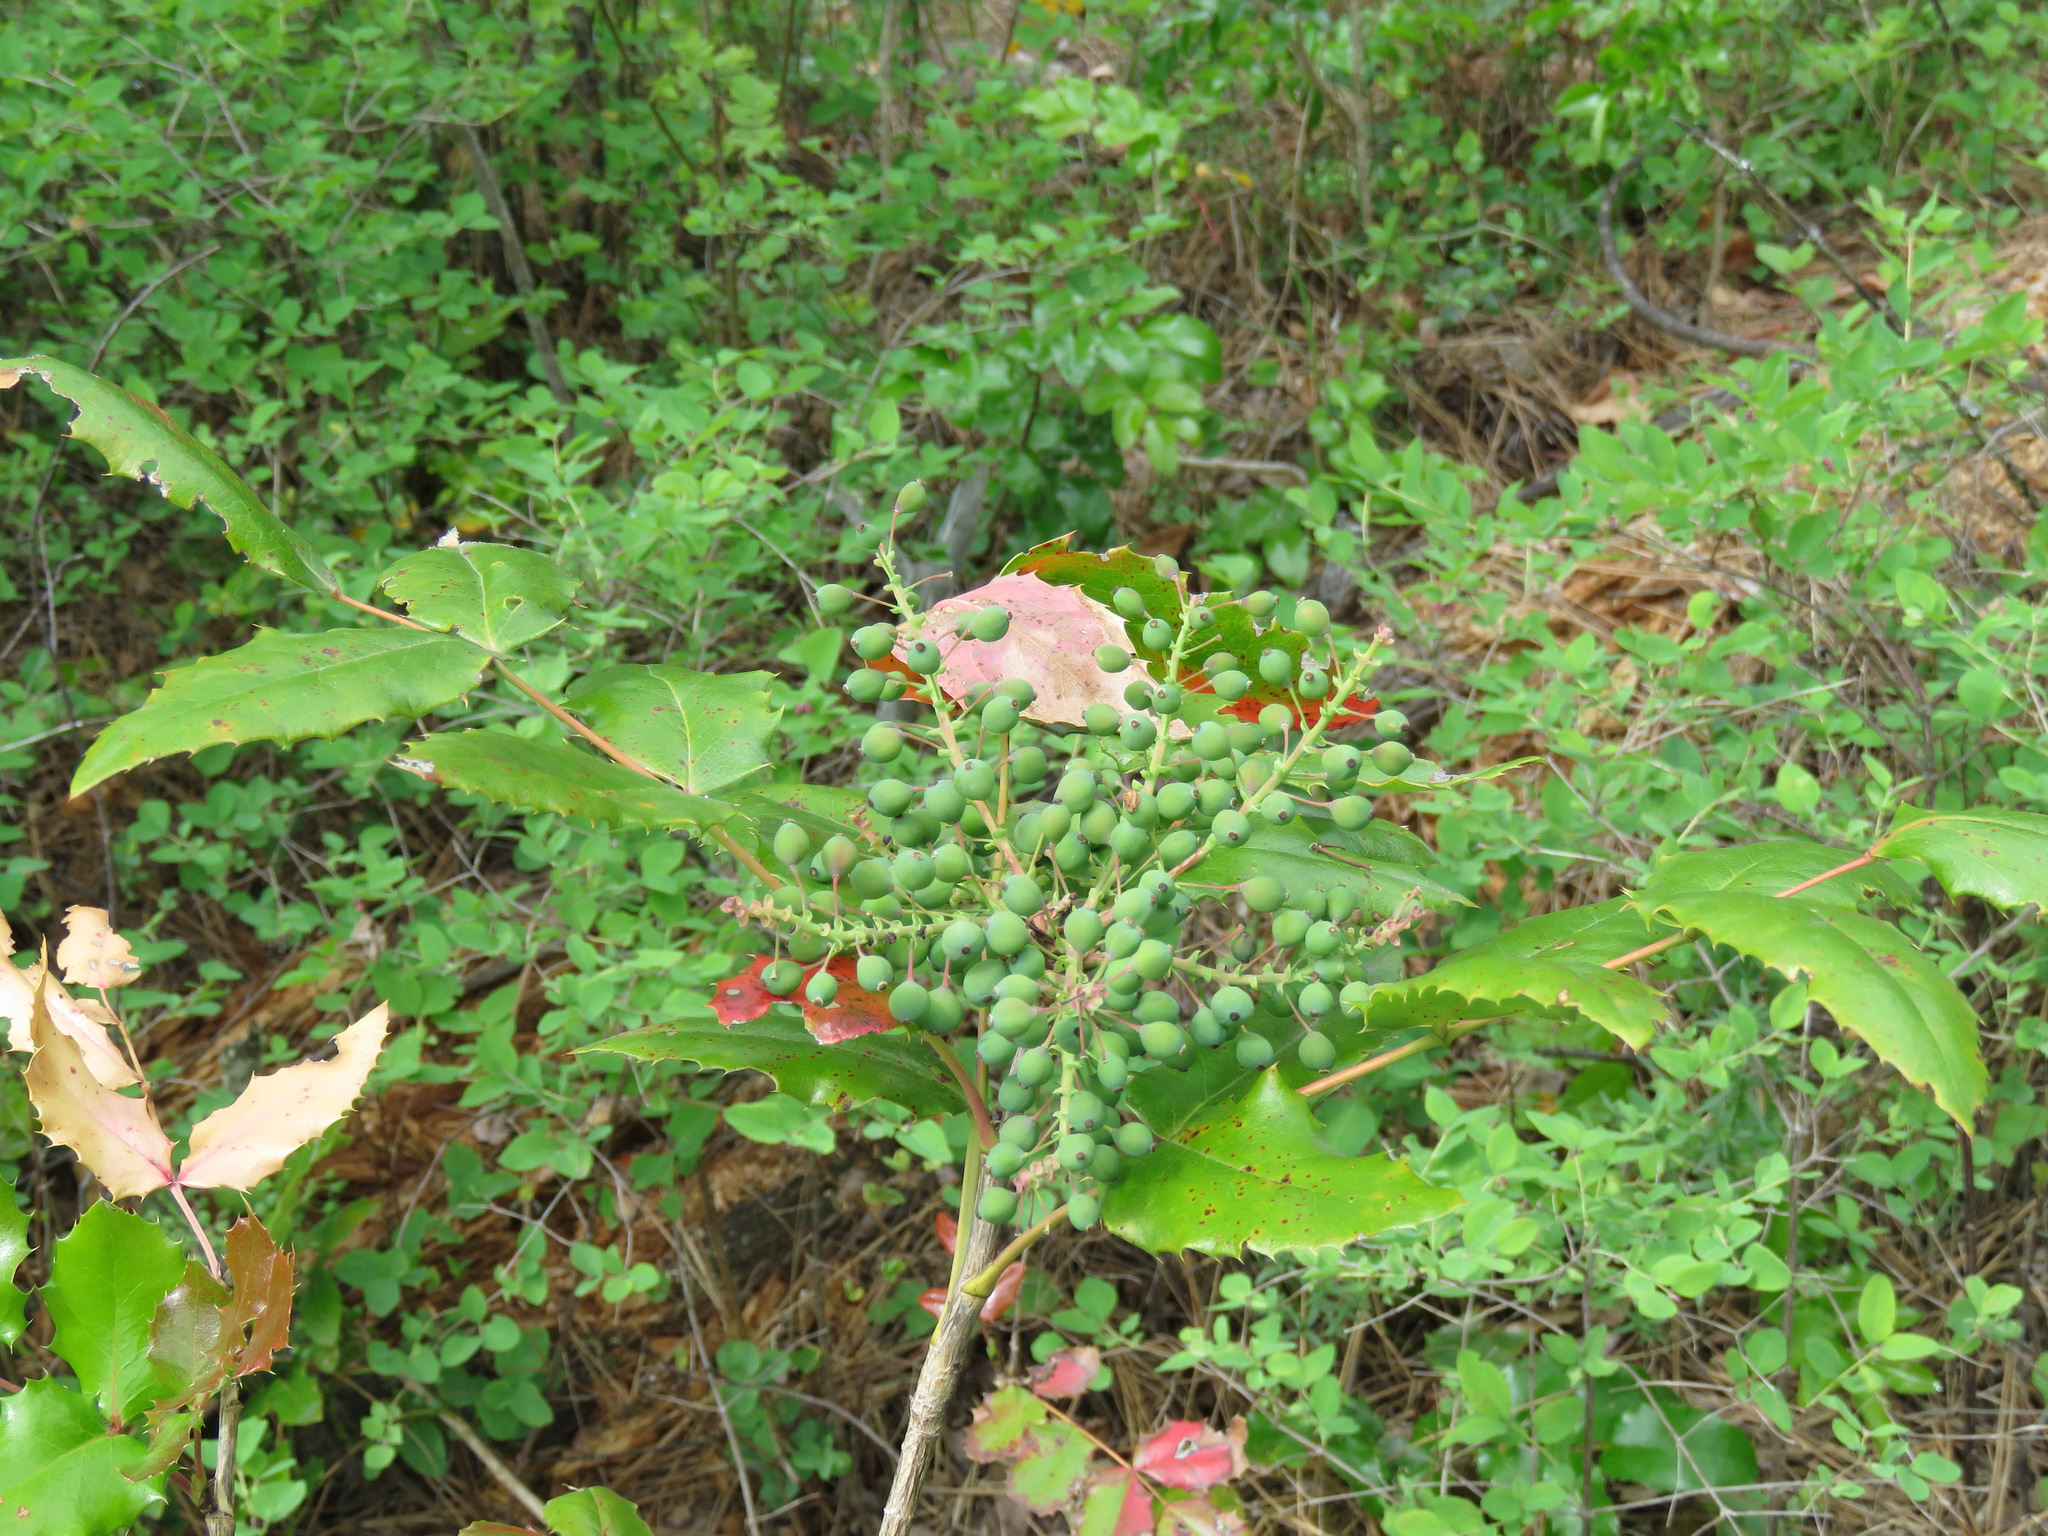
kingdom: Plantae
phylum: Tracheophyta
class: Magnoliopsida
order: Ranunculales
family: Berberidaceae
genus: Mahonia
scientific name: Mahonia aquifolium
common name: Oregon-grape
